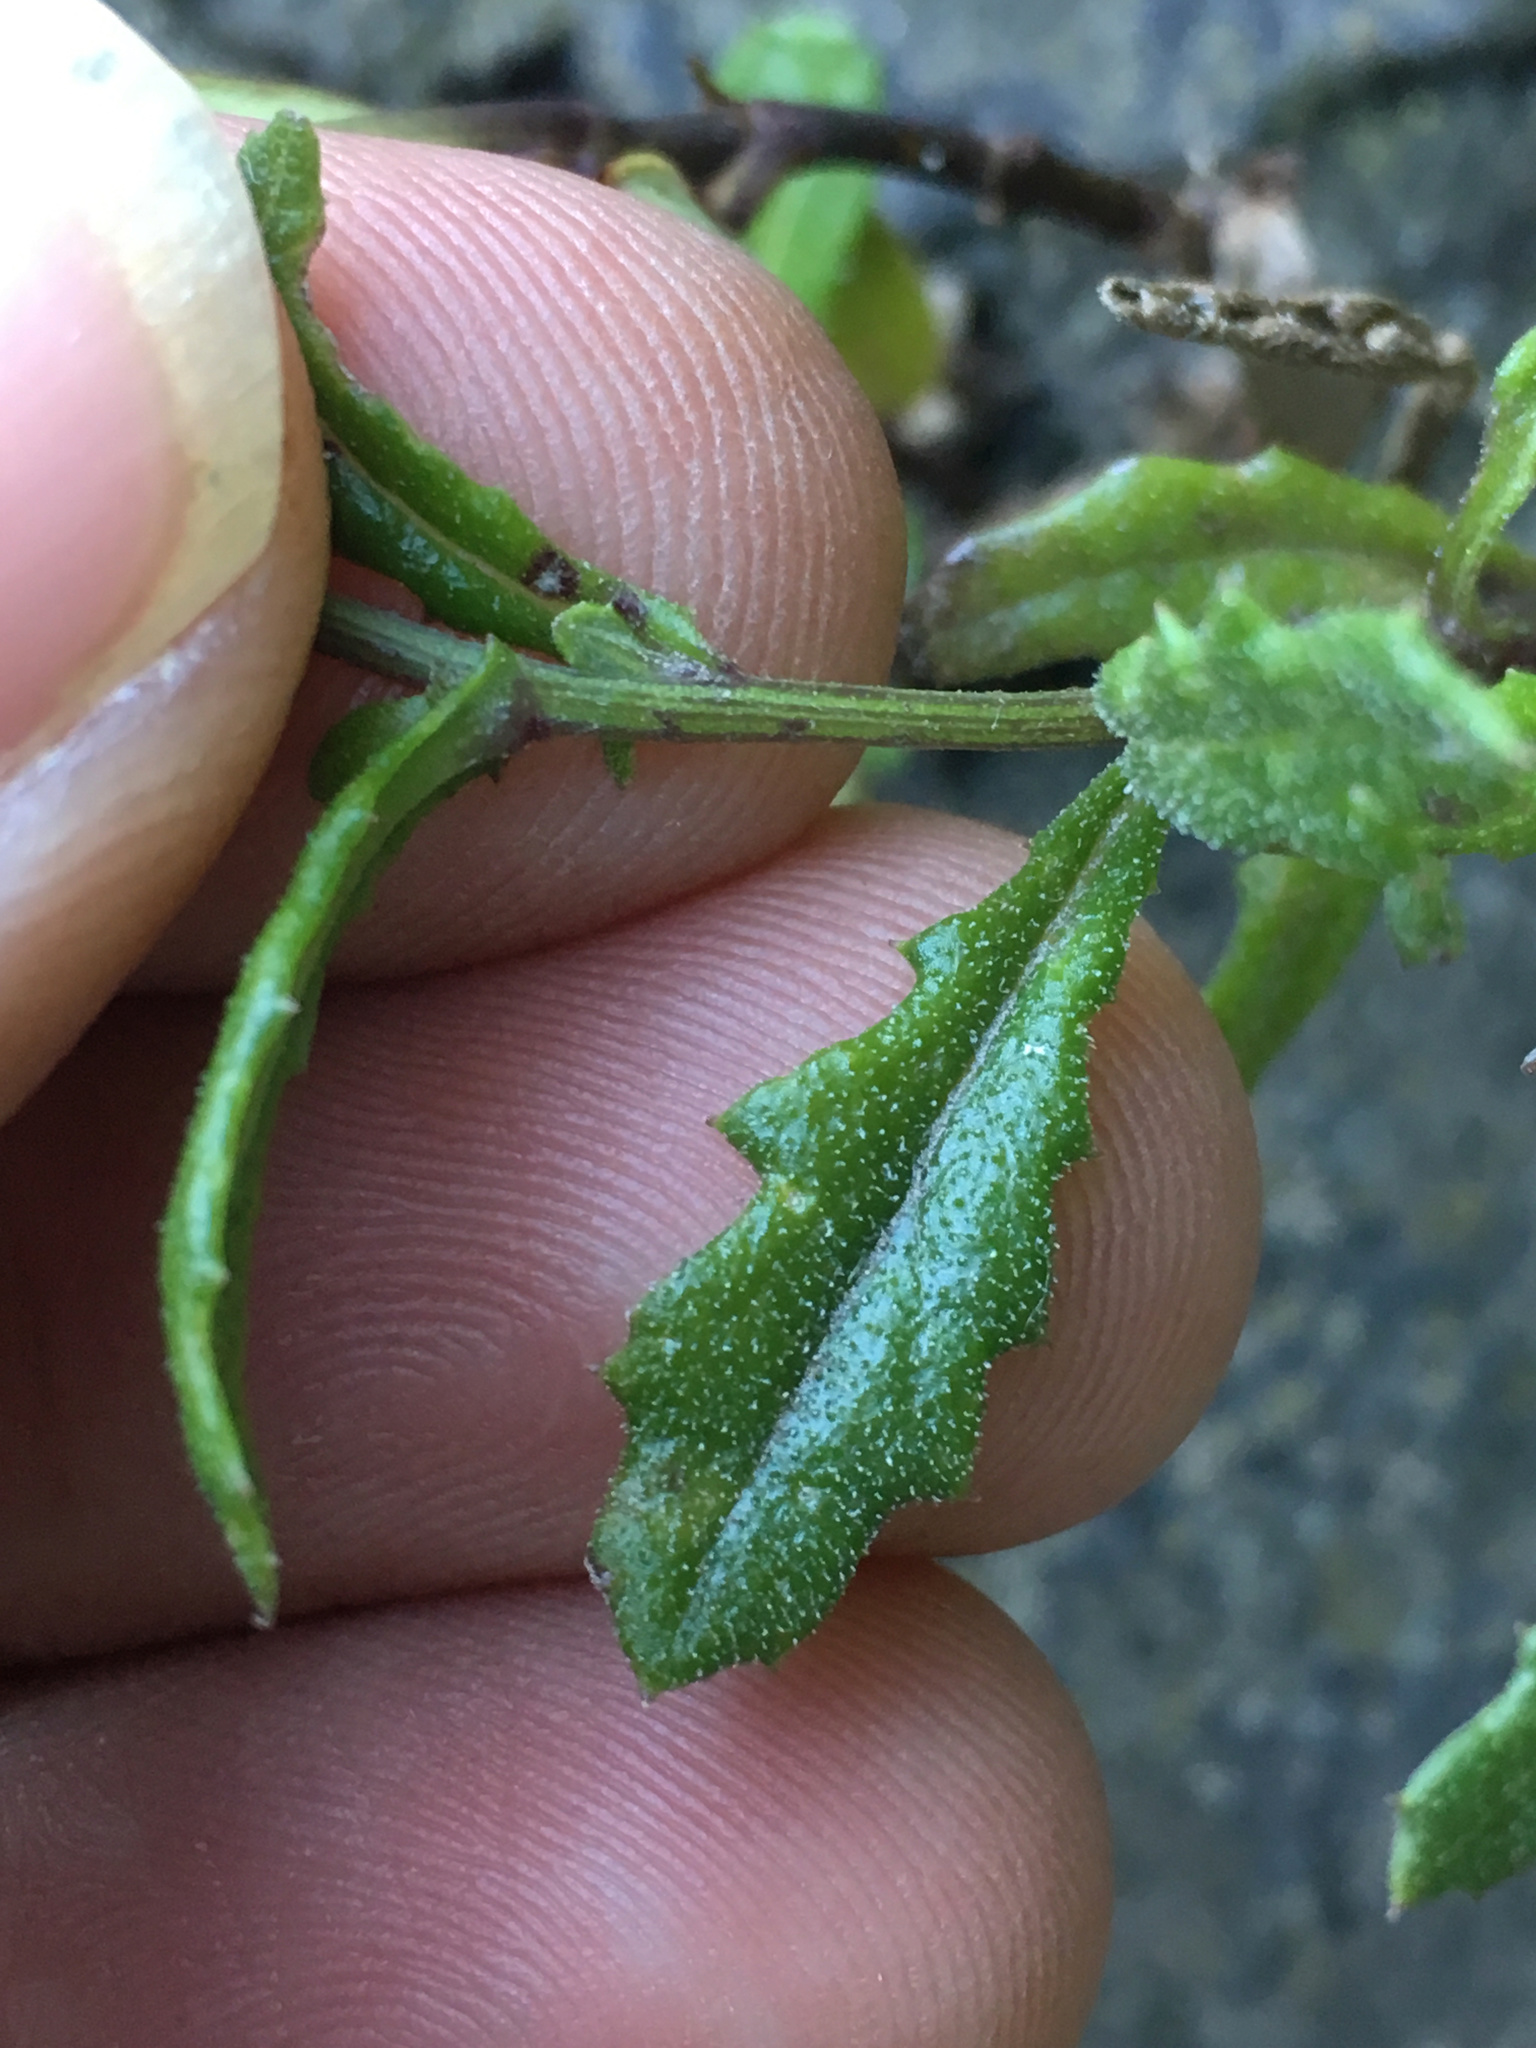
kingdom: Plantae
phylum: Tracheophyta
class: Magnoliopsida
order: Asterales
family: Asteraceae
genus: Senecio
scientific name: Senecio hispidulus
